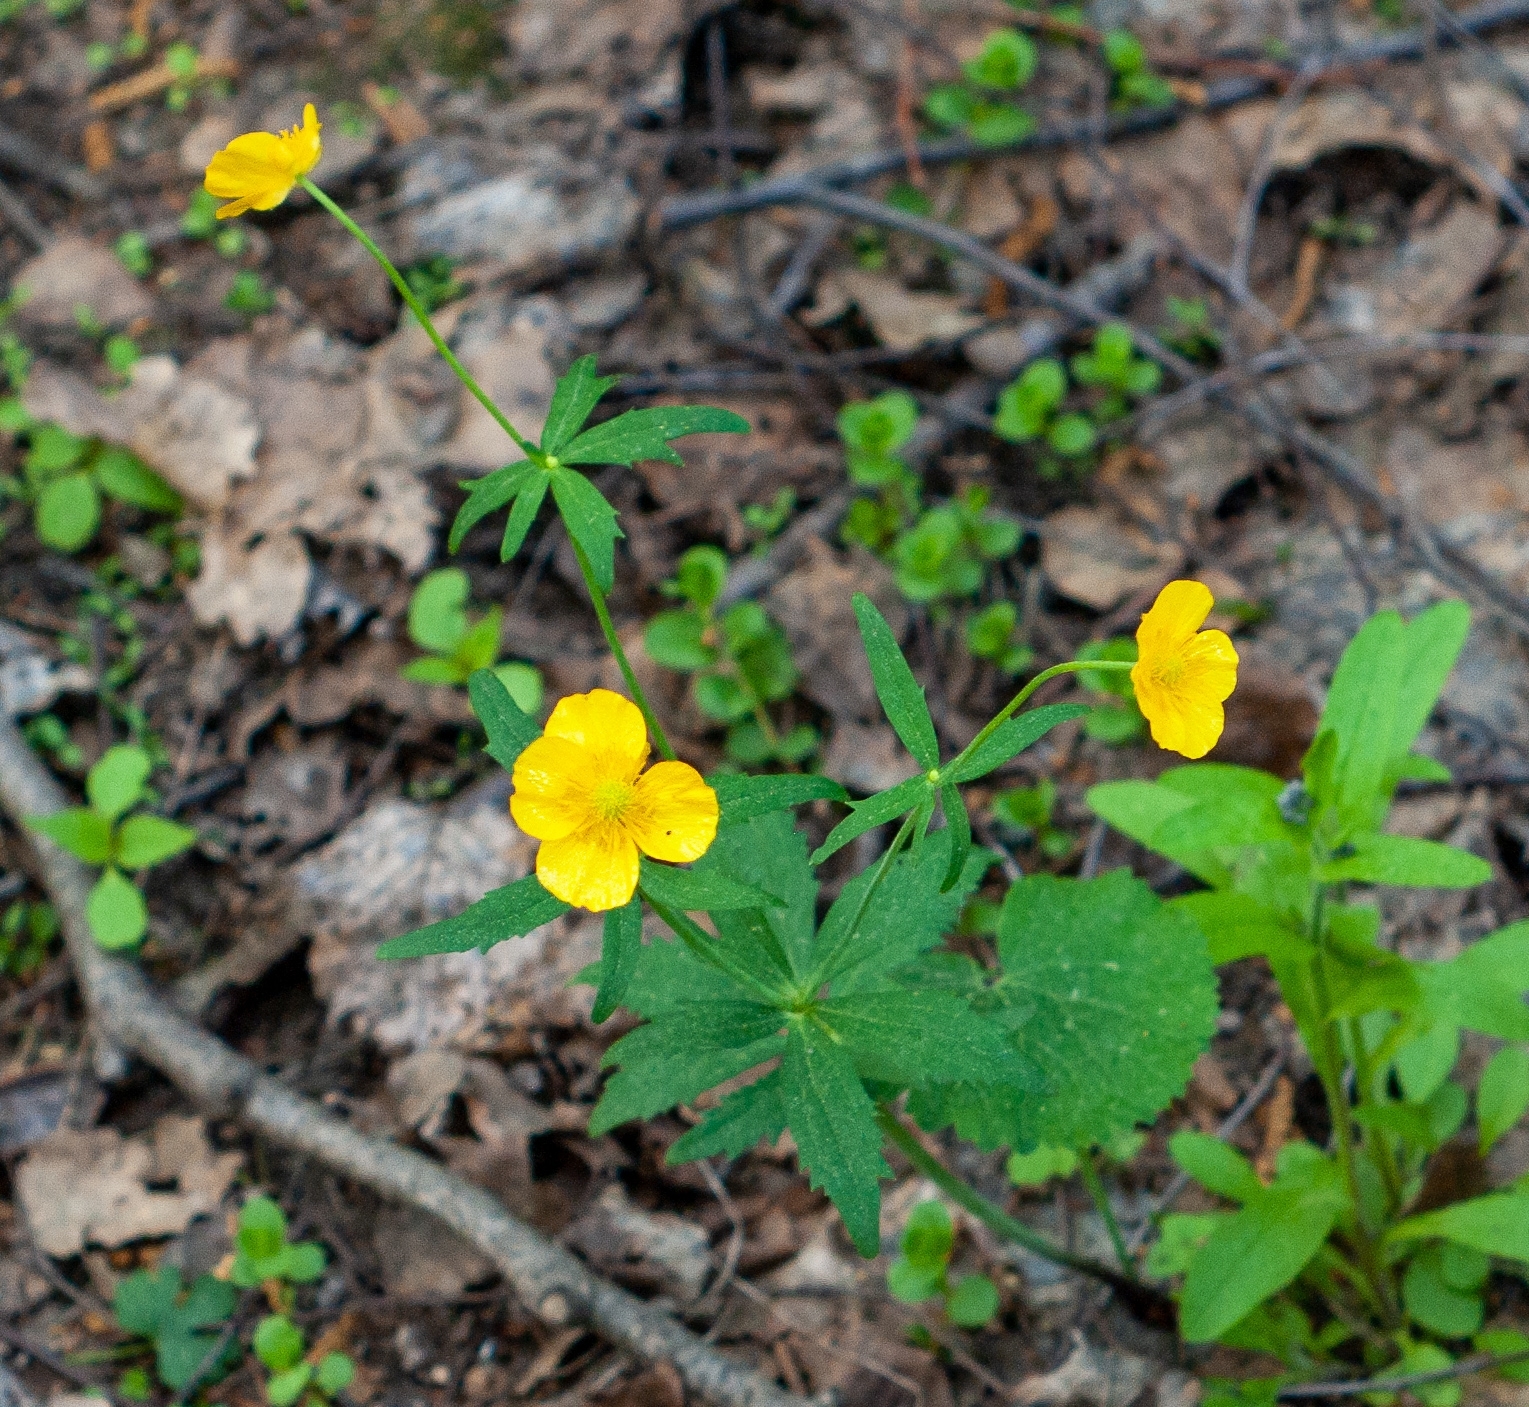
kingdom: Plantae
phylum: Tracheophyta
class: Magnoliopsida
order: Ranunculales
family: Ranunculaceae
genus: Ranunculus
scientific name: Ranunculus cassubicus
